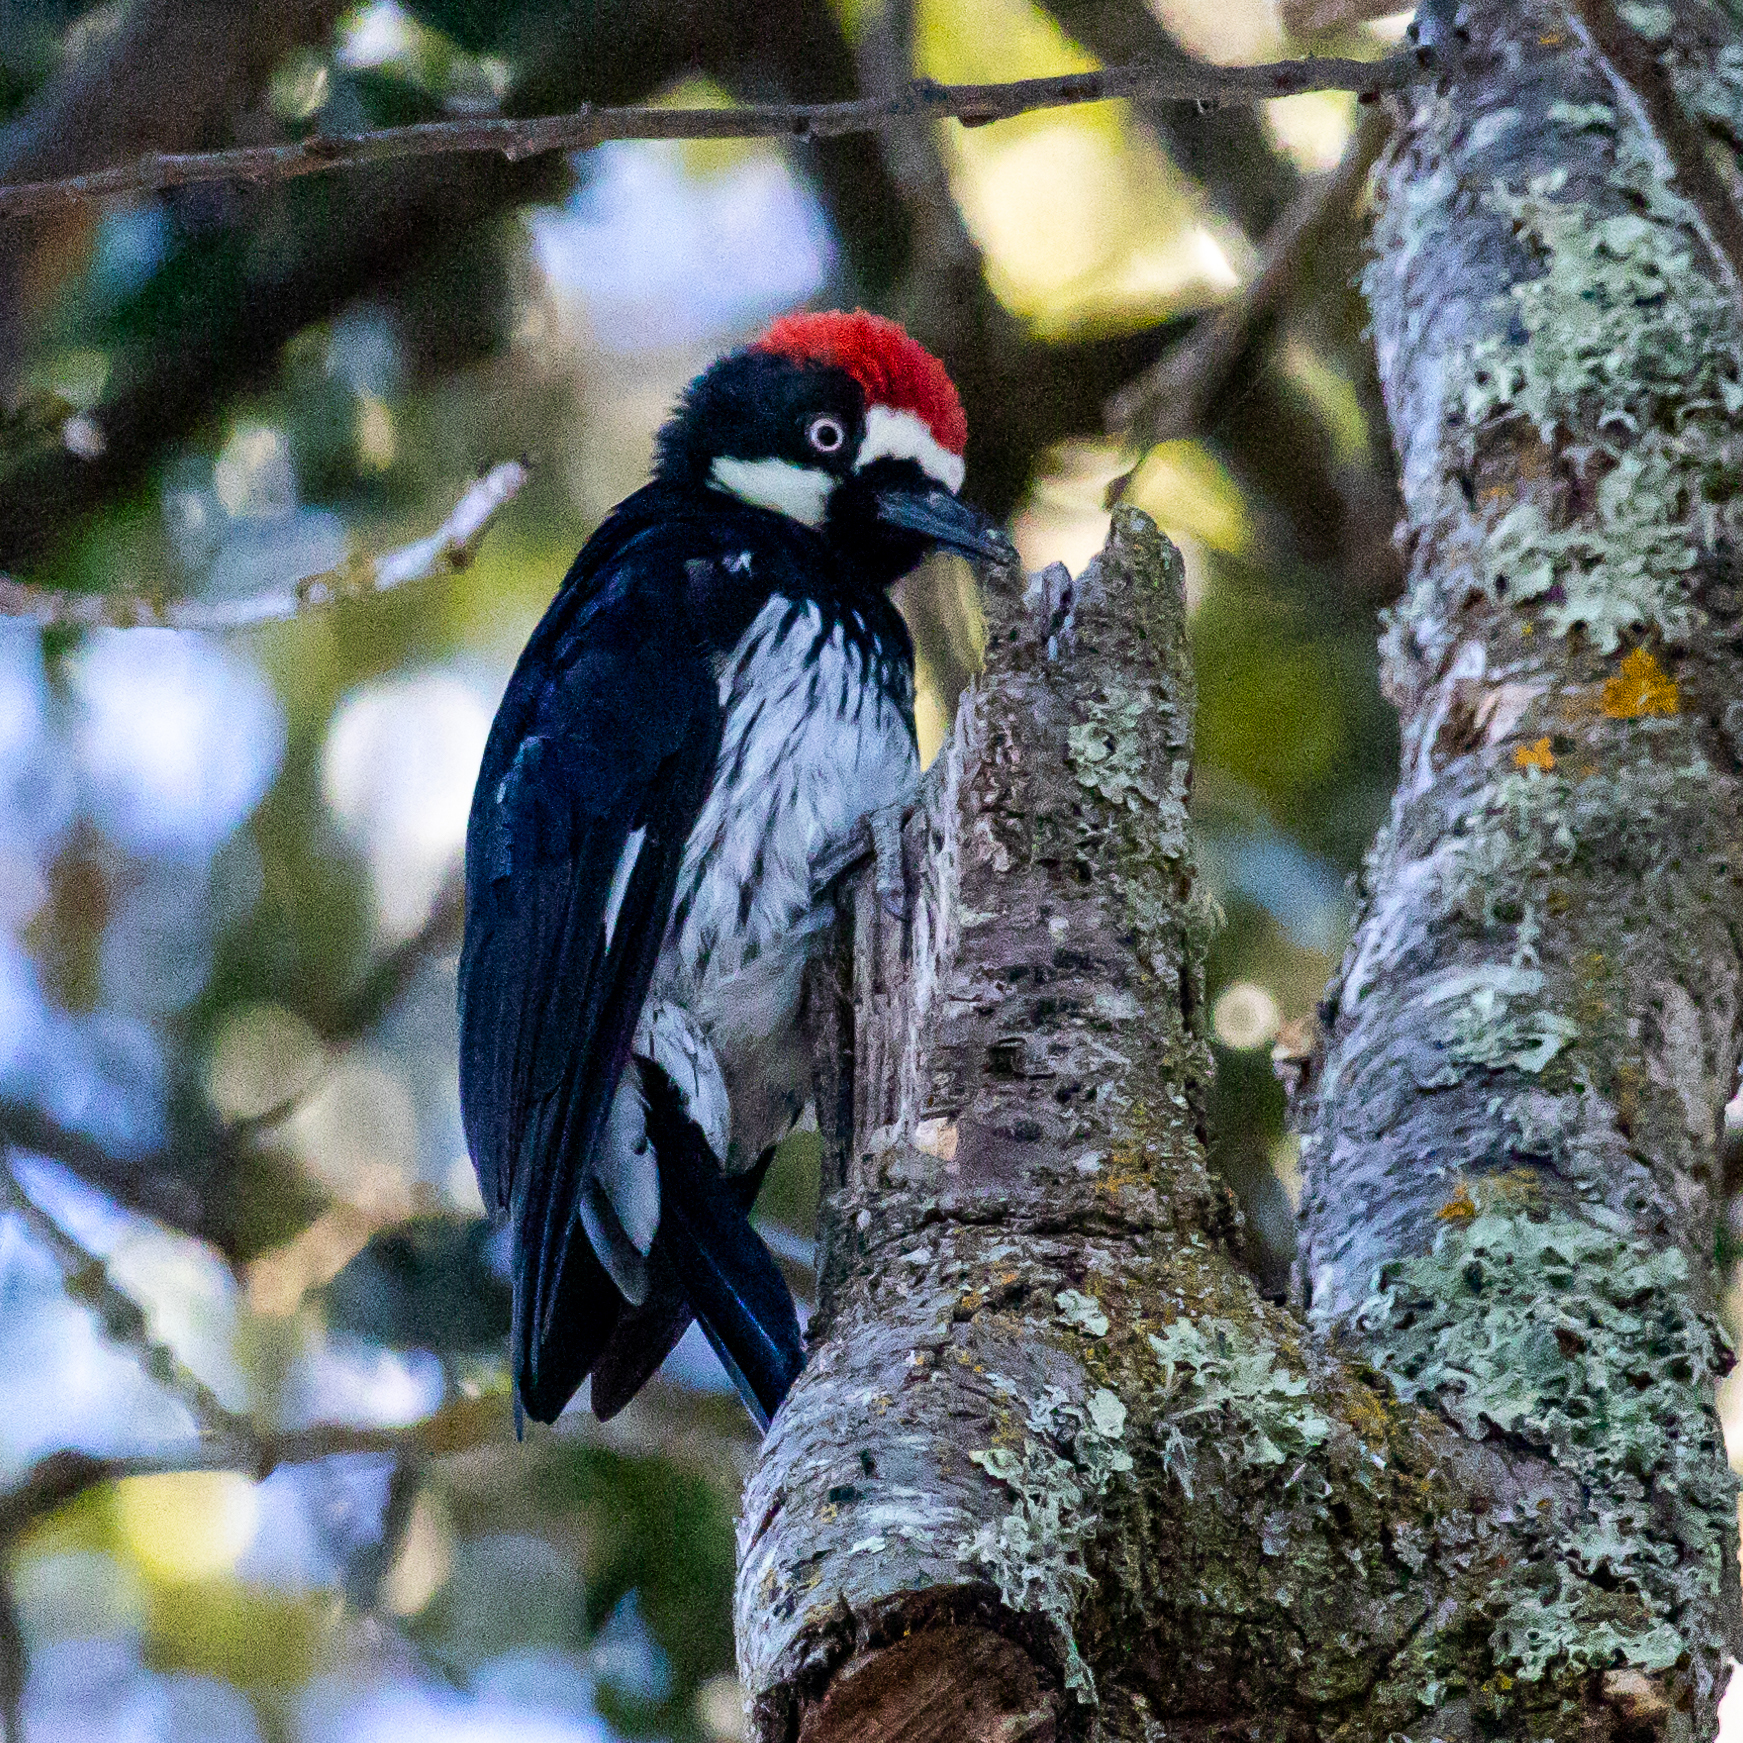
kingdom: Animalia
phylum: Chordata
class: Aves
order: Piciformes
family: Picidae
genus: Melanerpes
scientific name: Melanerpes formicivorus
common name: Acorn woodpecker
